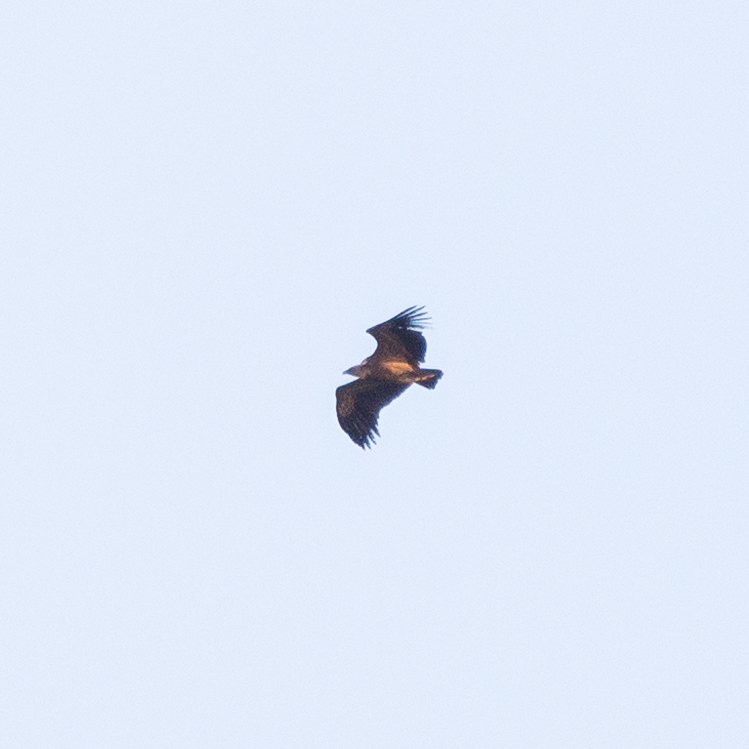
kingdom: Animalia
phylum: Chordata
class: Aves
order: Accipitriformes
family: Accipitridae
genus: Gyps
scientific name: Gyps fulvus
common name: Griffon vulture
